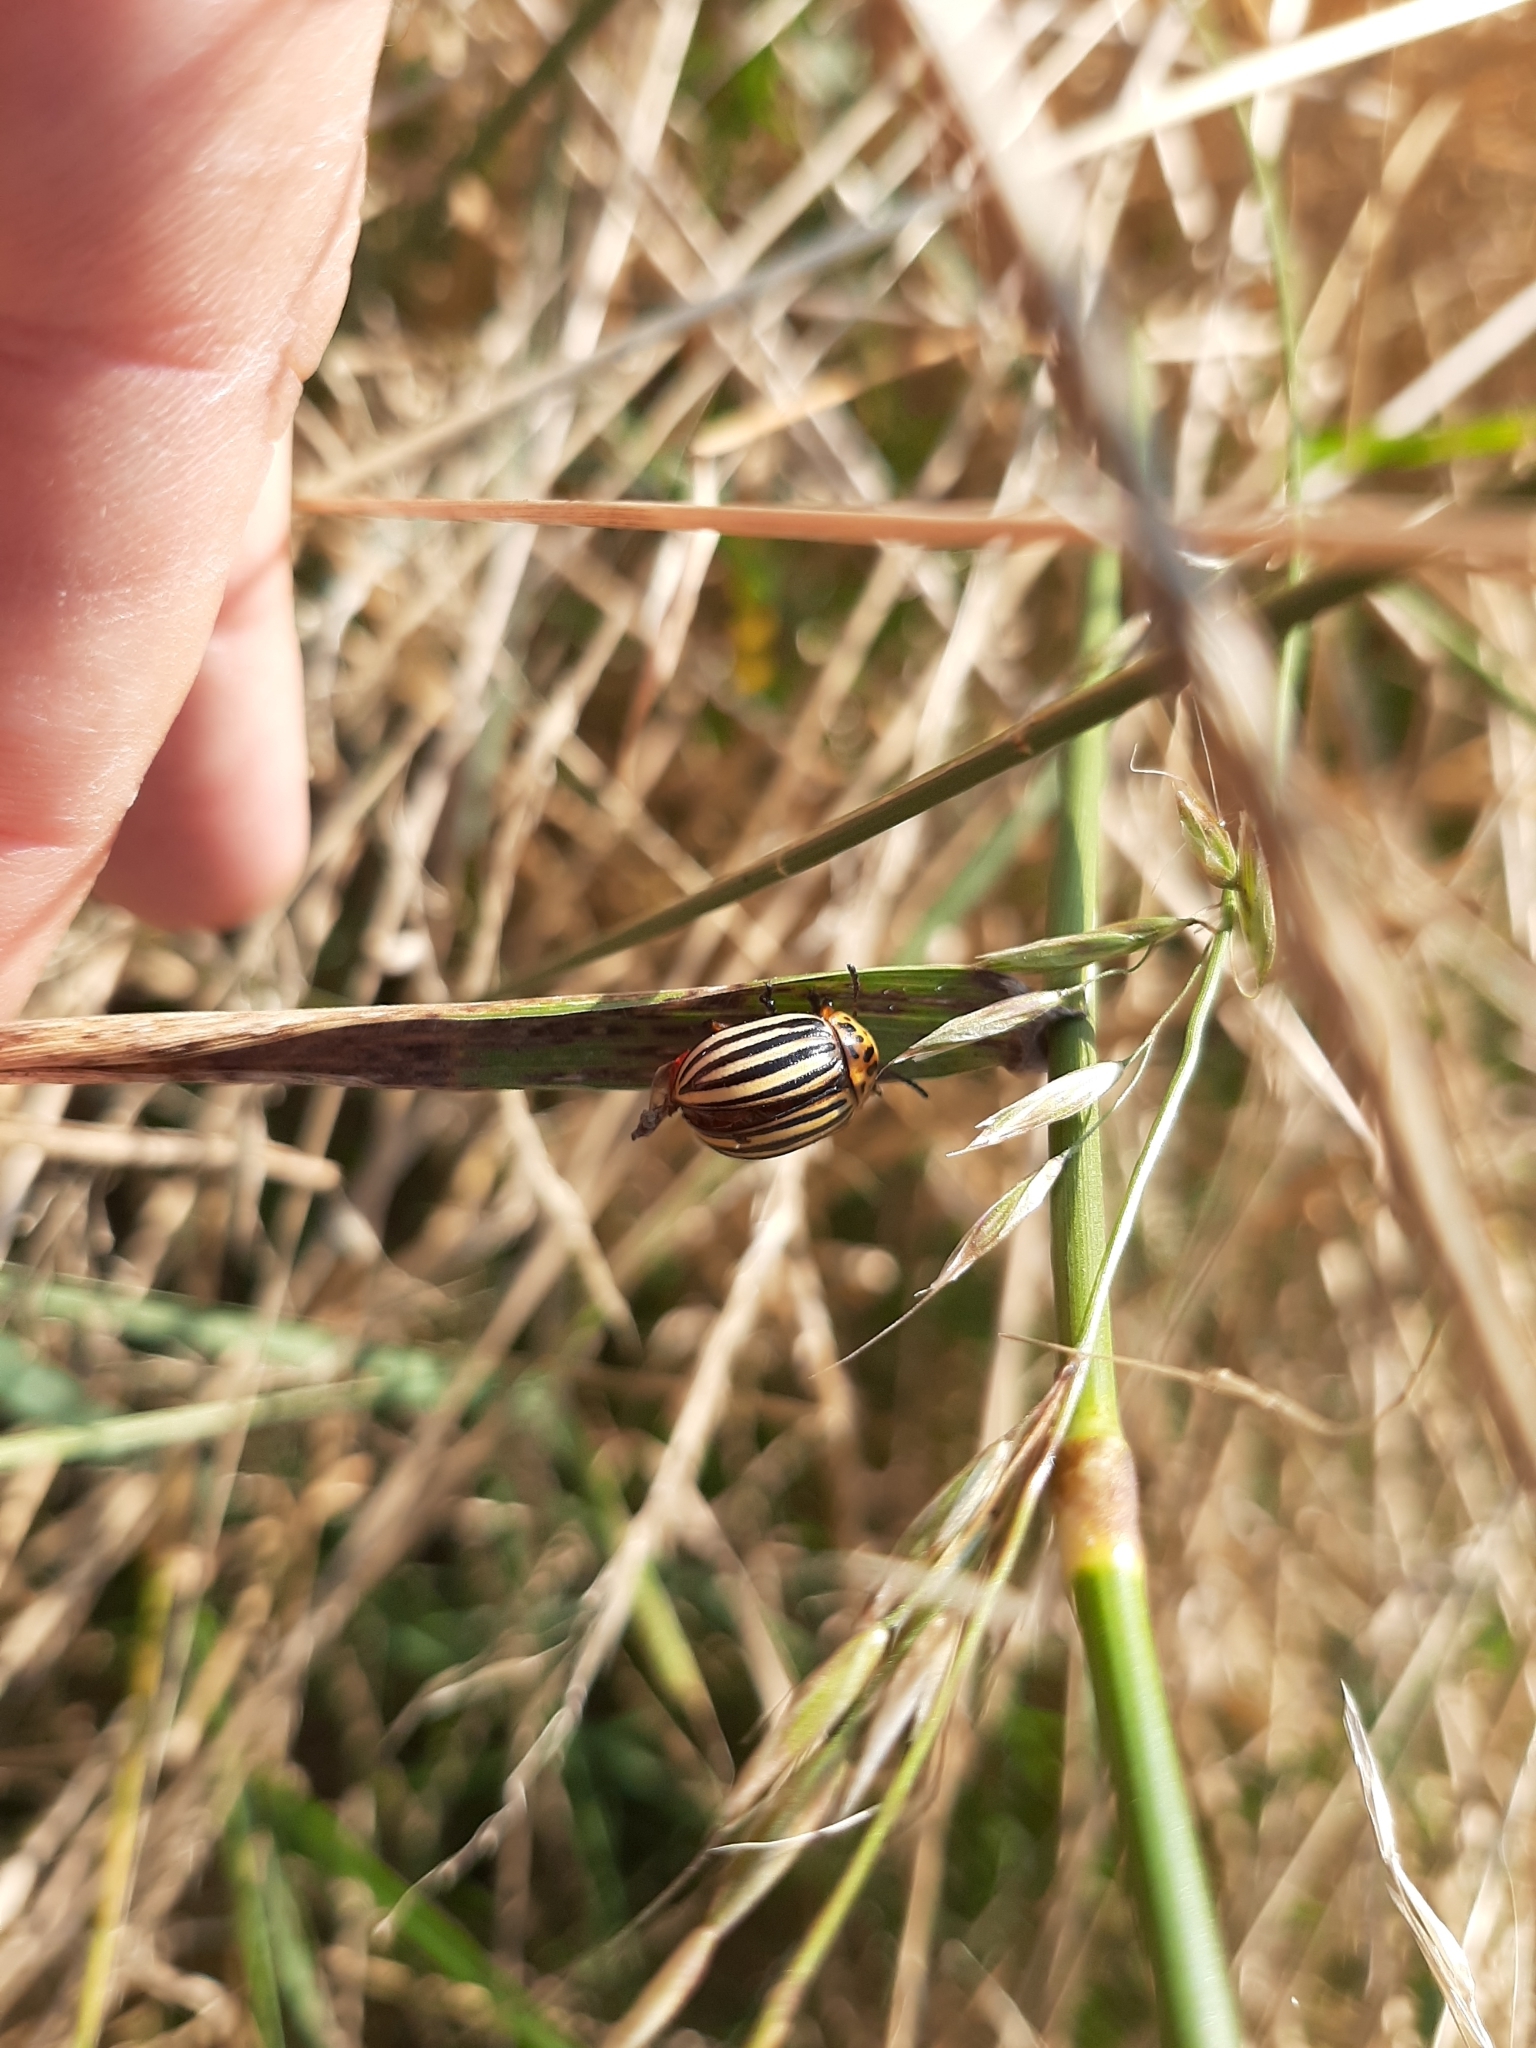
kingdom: Animalia
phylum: Arthropoda
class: Insecta
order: Coleoptera
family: Chrysomelidae
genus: Leptinotarsa
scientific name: Leptinotarsa decemlineata
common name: Colorado potato beetle
